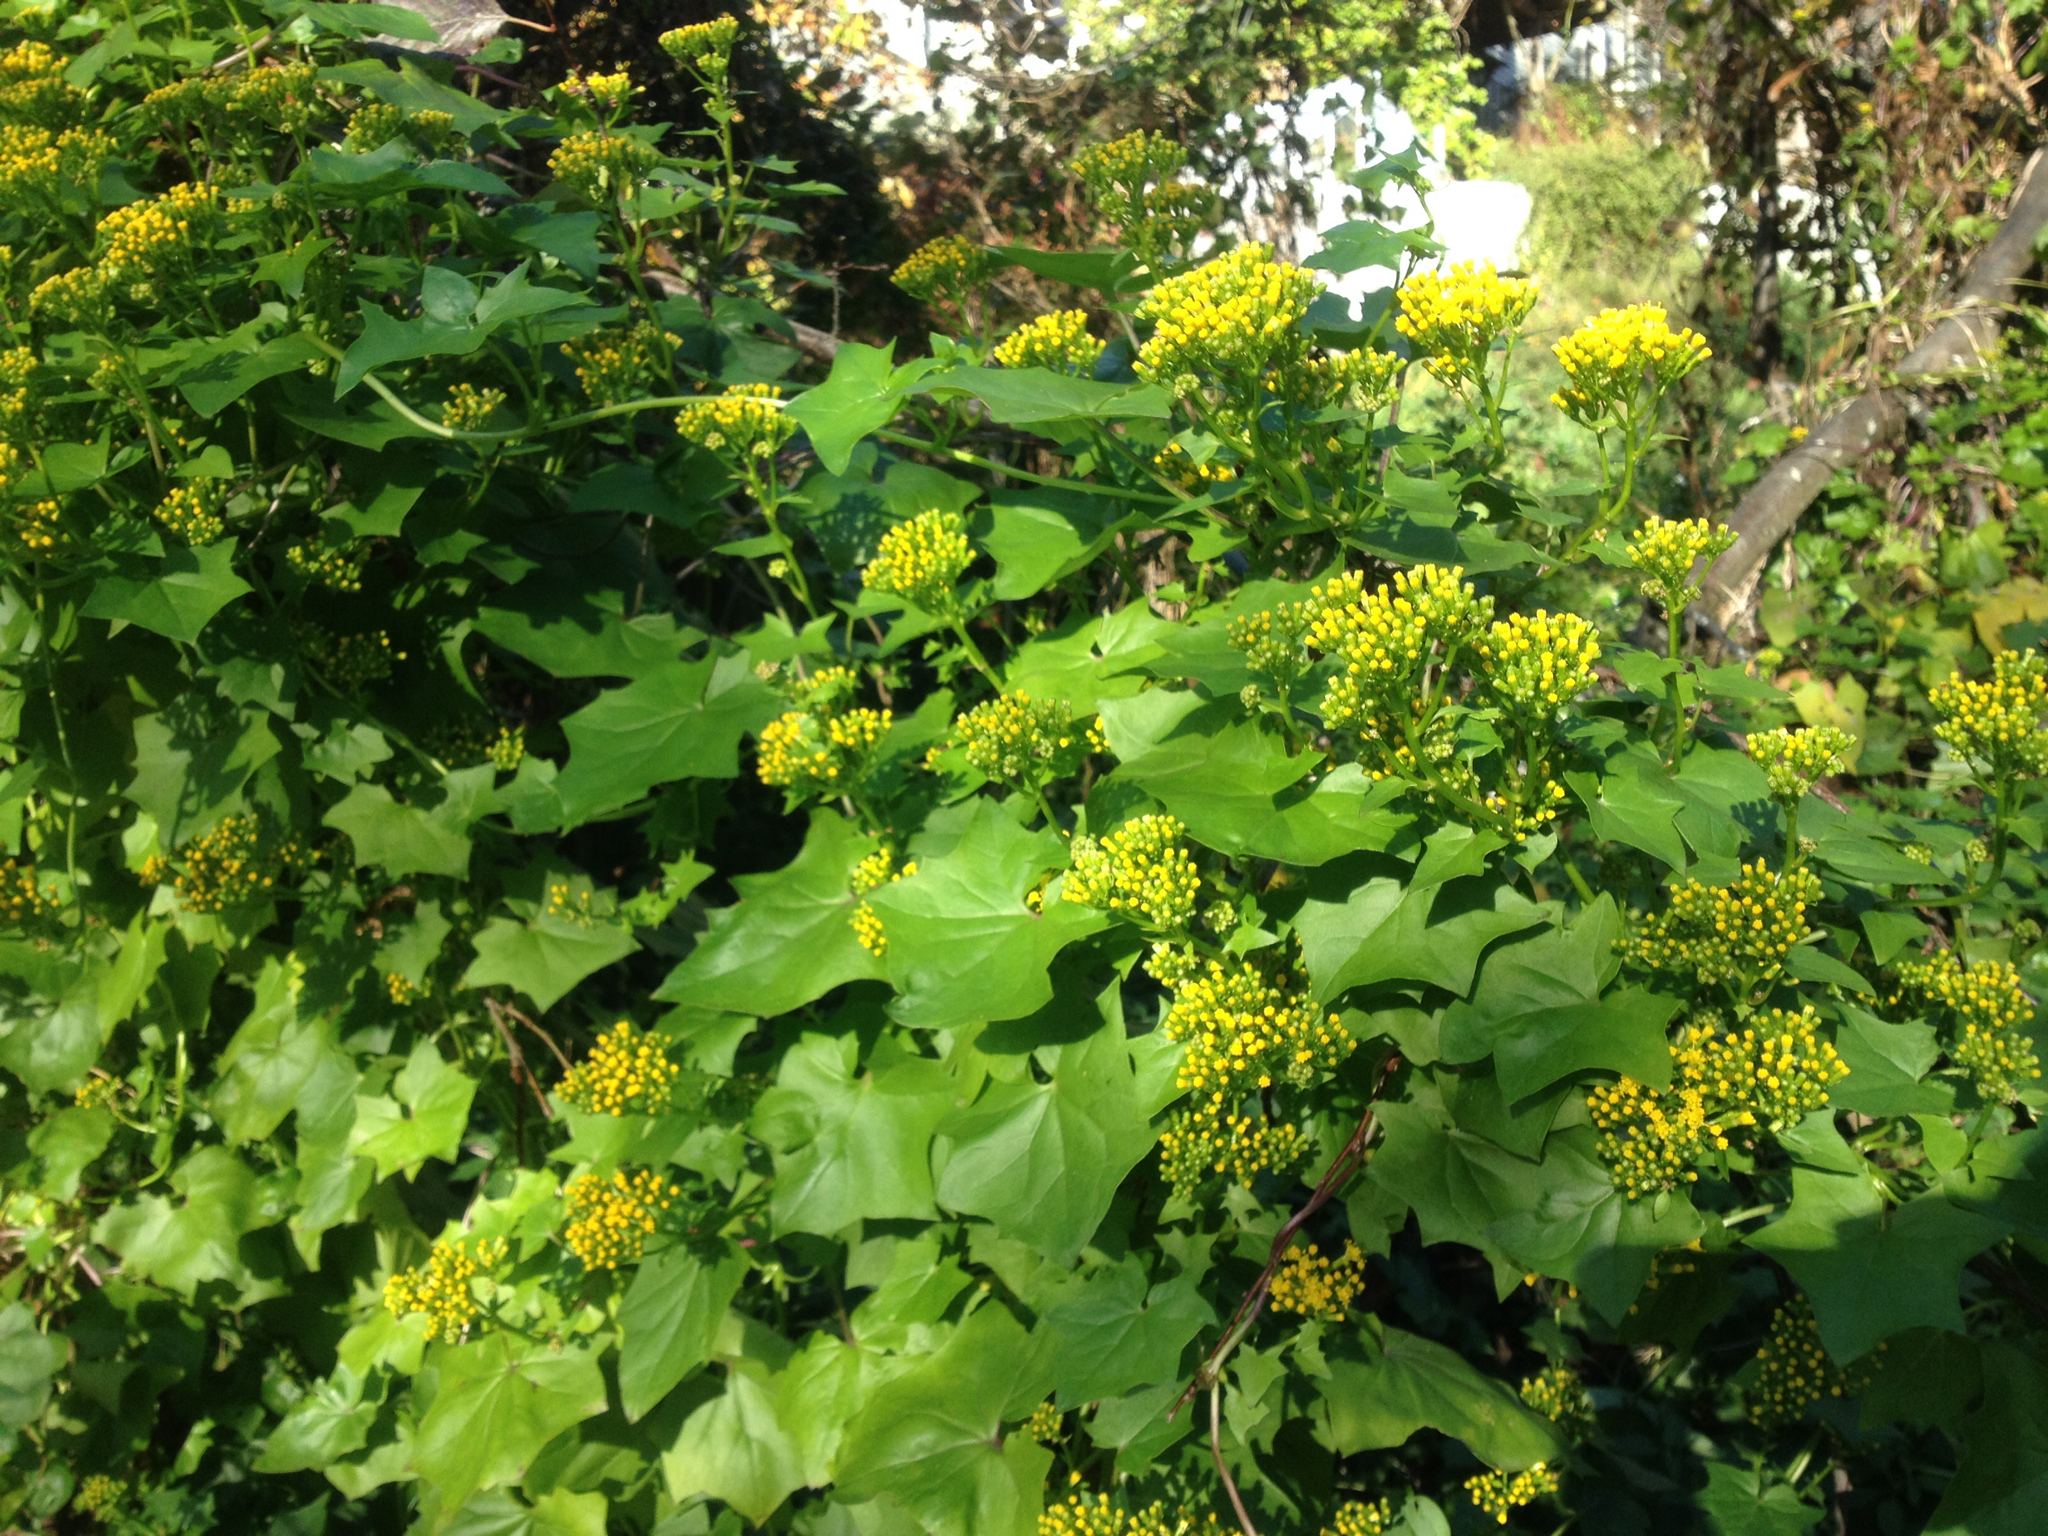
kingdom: Plantae
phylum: Tracheophyta
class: Magnoliopsida
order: Asterales
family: Asteraceae
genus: Delairea
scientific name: Delairea odorata
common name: Cape-ivy
